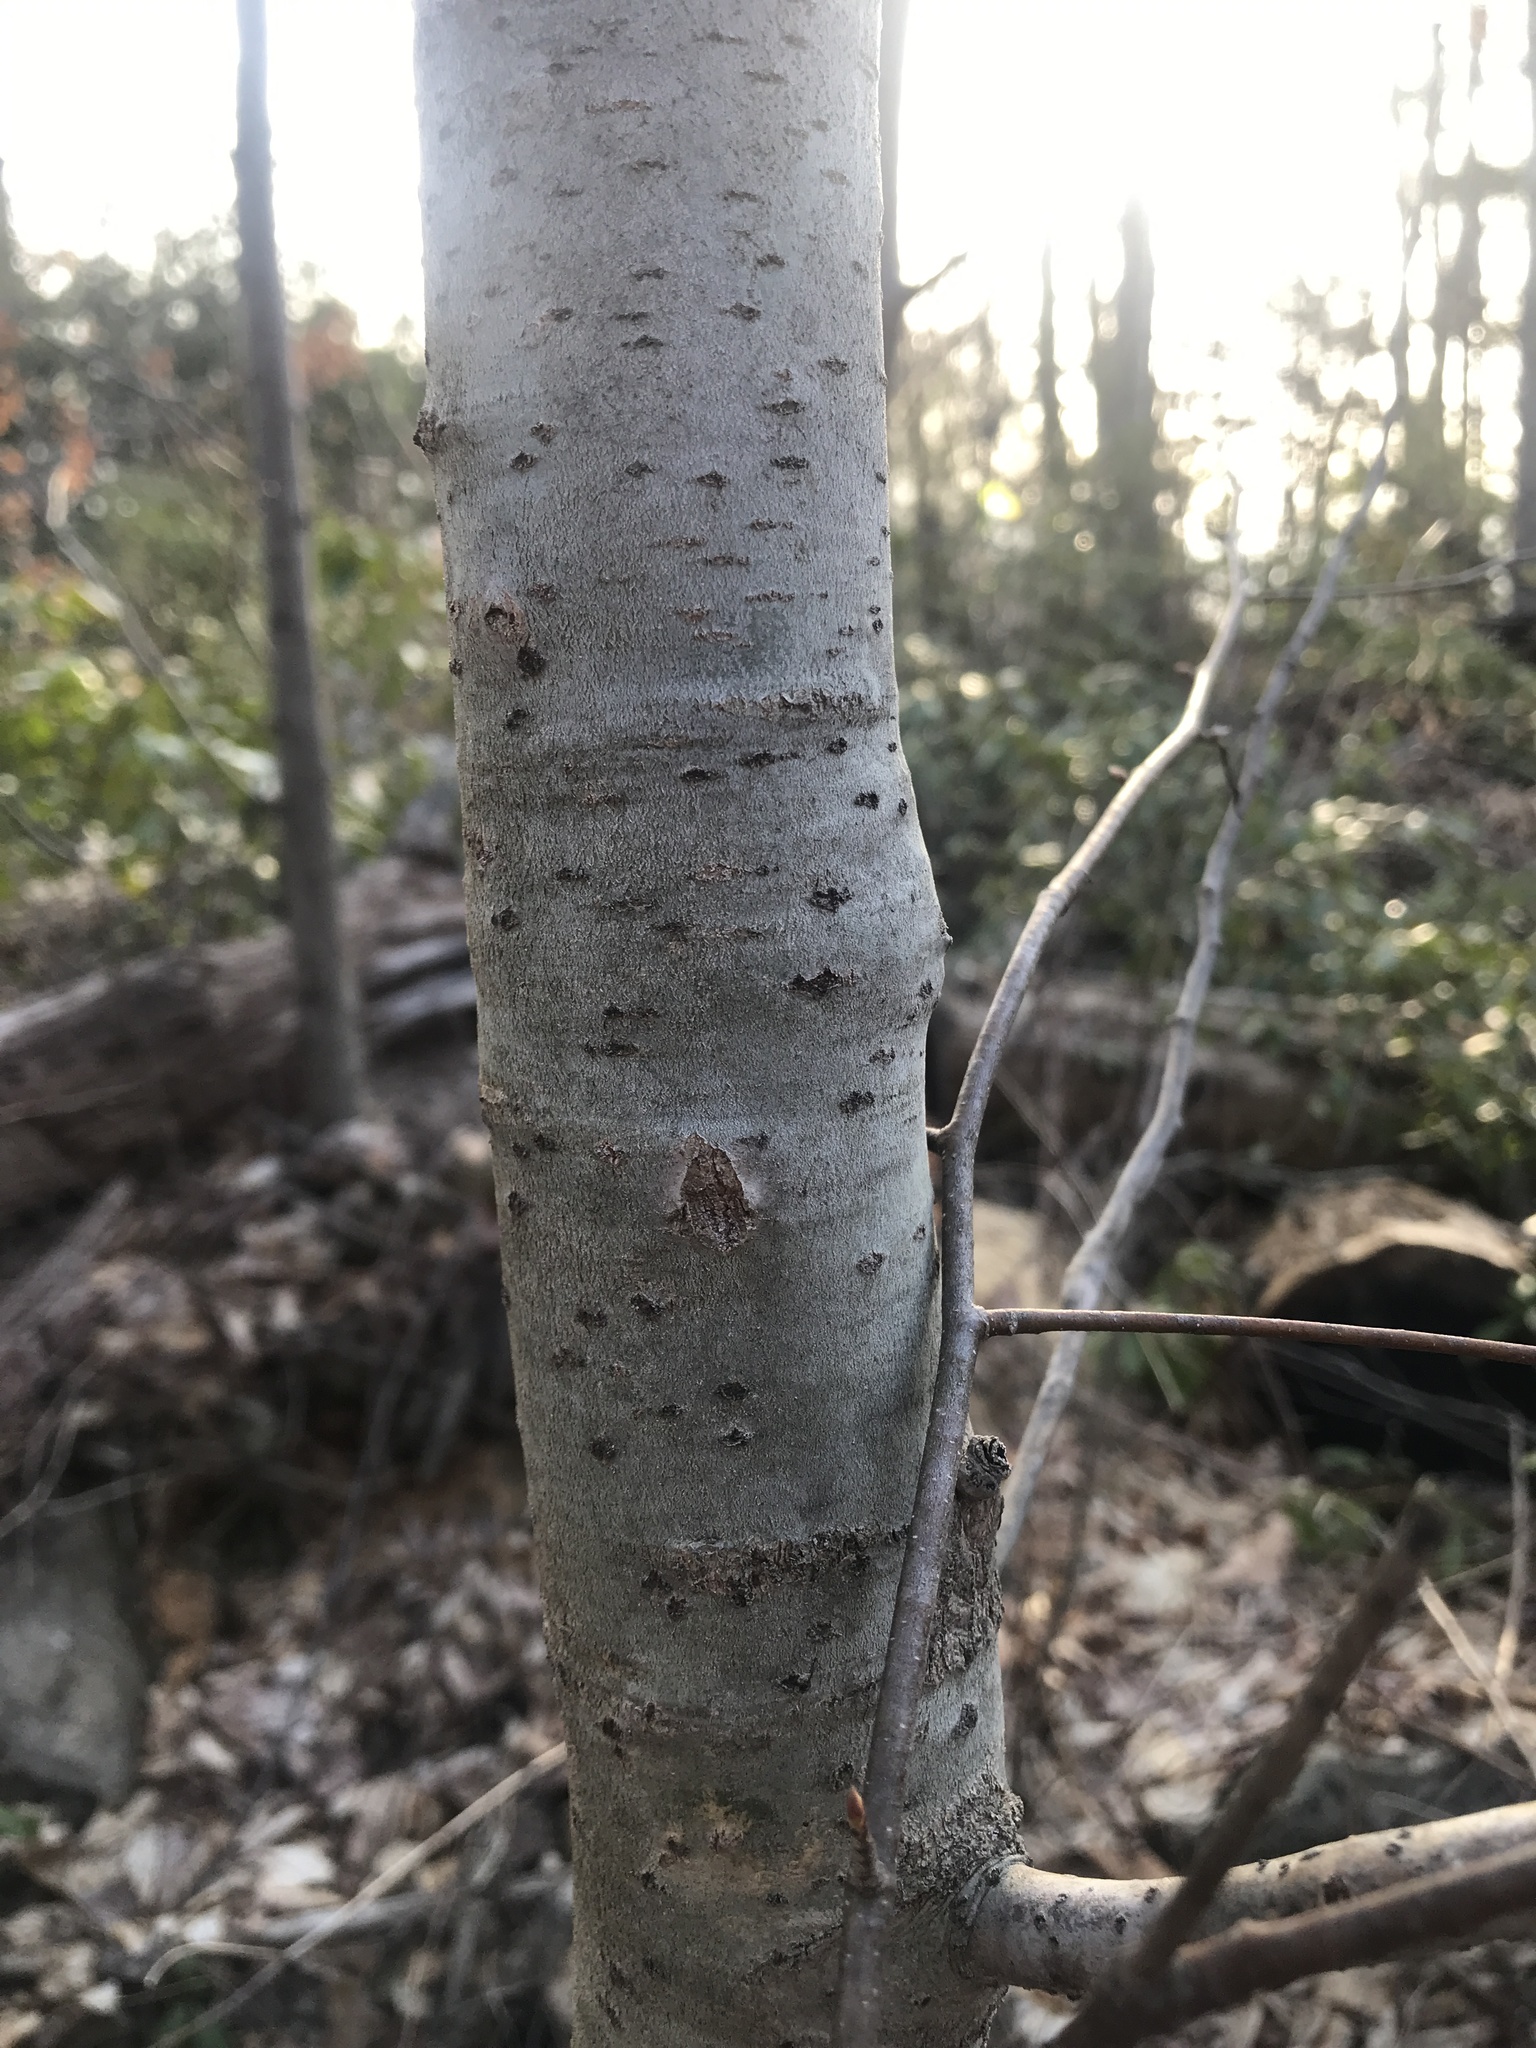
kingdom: Plantae
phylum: Tracheophyta
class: Magnoliopsida
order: Malpighiales
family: Salicaceae
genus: Populus
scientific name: Populus tremuloides
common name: Quaking aspen
